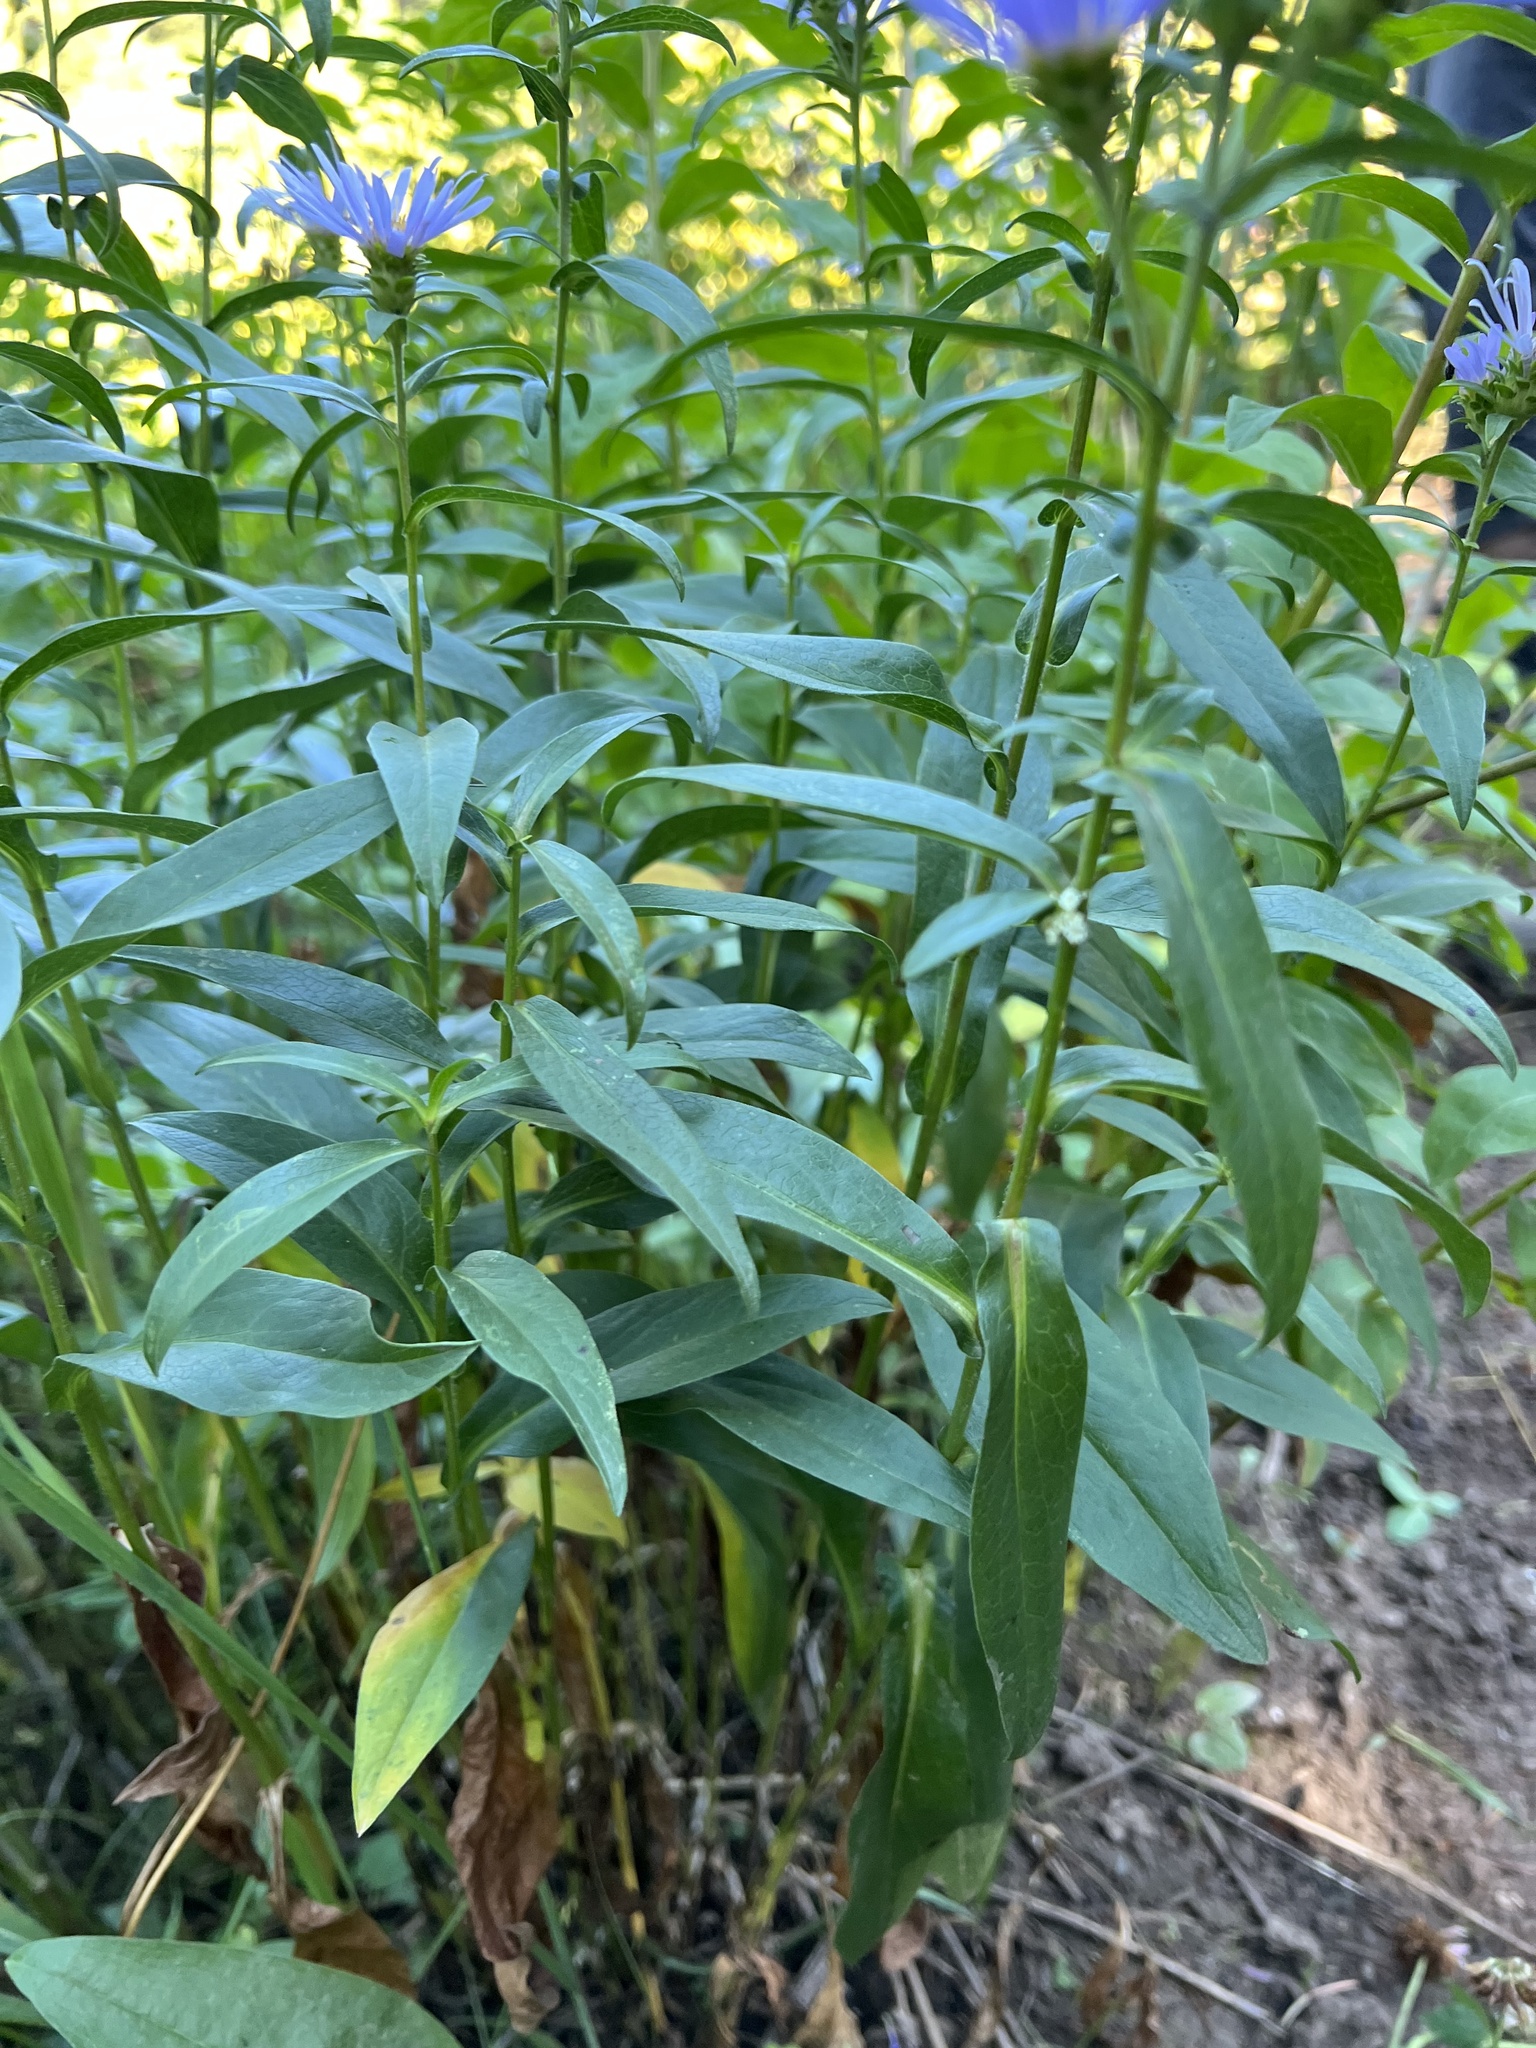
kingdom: Plantae
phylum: Tracheophyta
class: Magnoliopsida
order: Asterales
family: Asteraceae
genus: Symphyotrichum
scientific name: Symphyotrichum foliaceum
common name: Leafy aster
